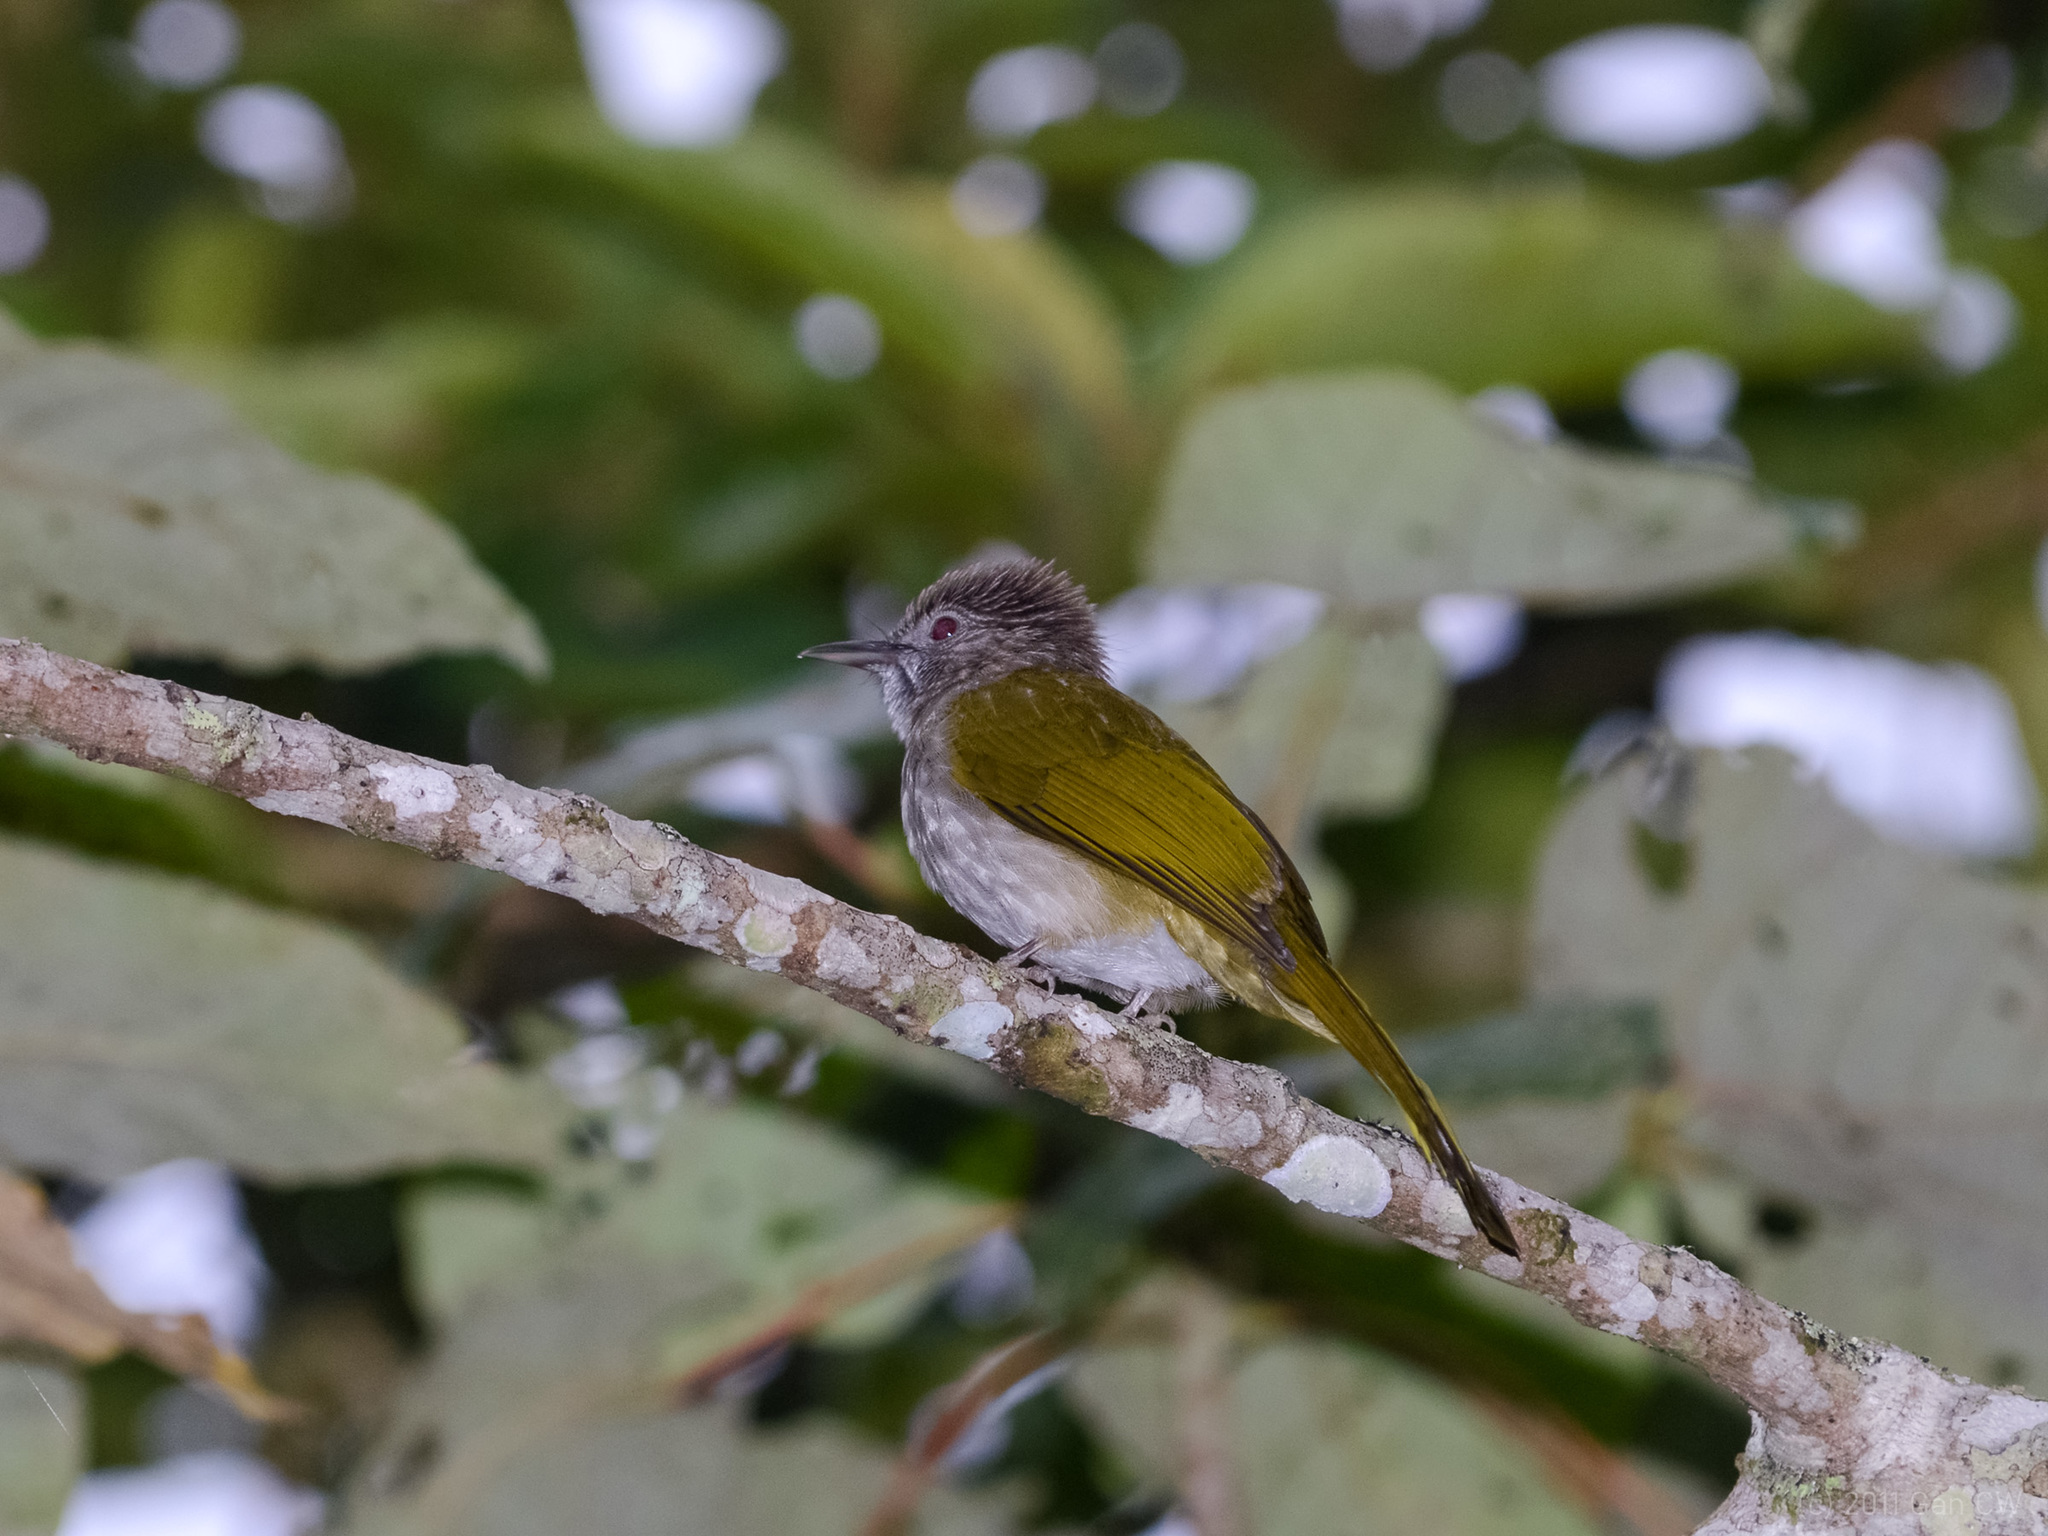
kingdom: Animalia
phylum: Chordata
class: Aves
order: Passeriformes
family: Pycnonotidae
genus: Ixos
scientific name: Ixos mcclellandii
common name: Mountain bulbul
